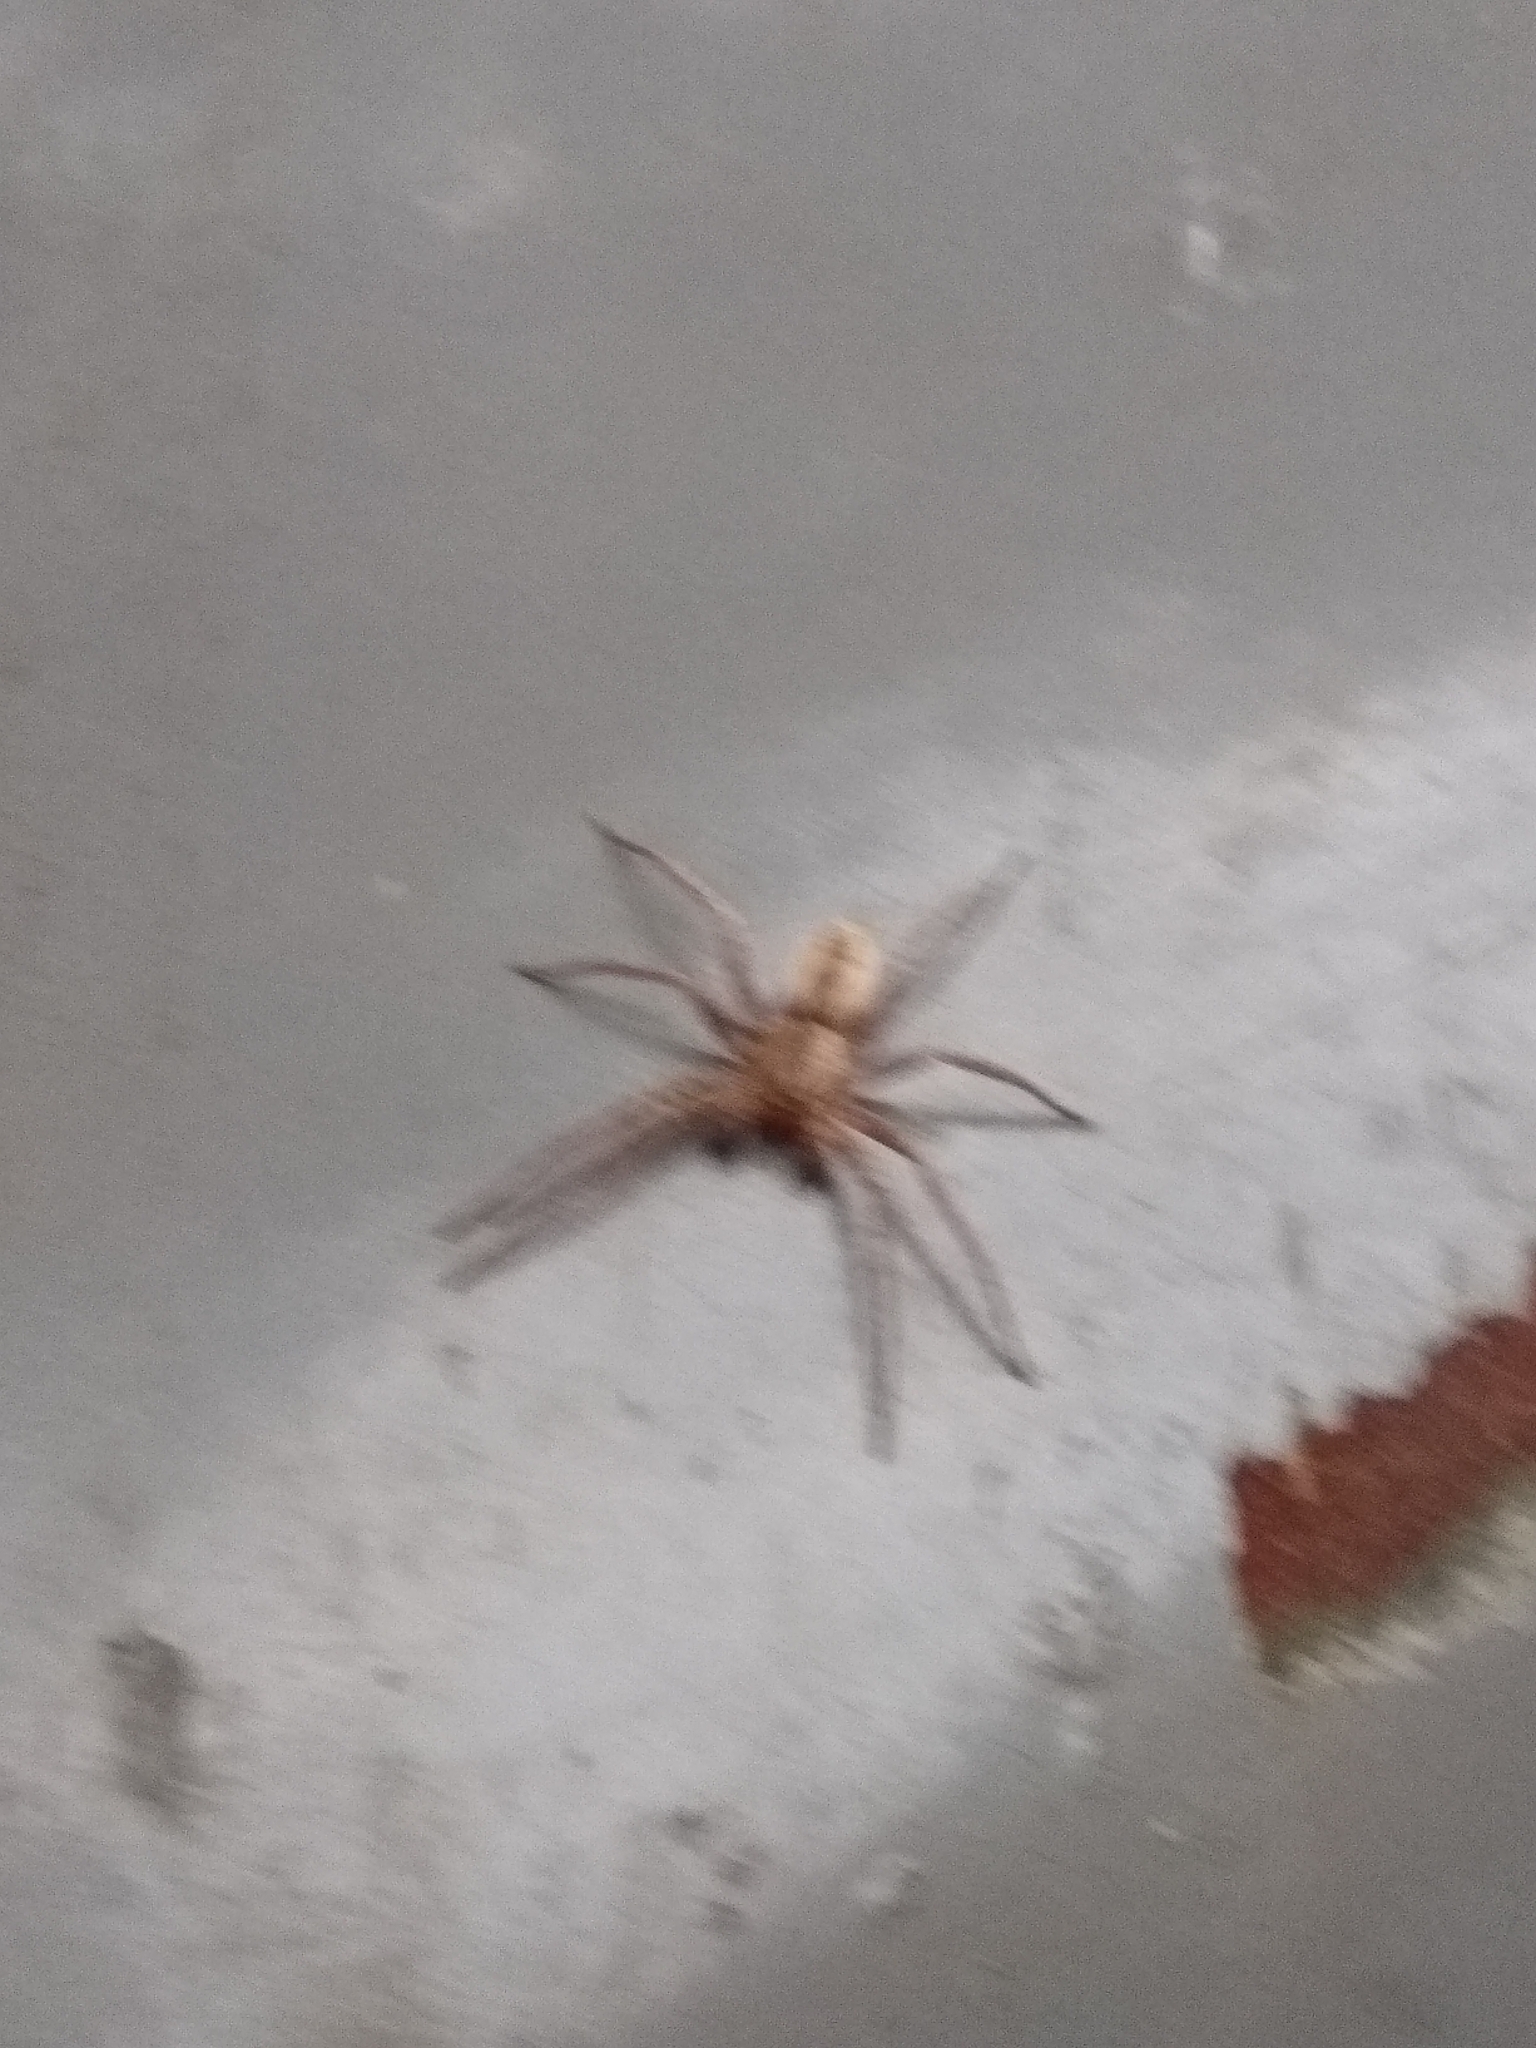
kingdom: Animalia
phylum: Arthropoda
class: Arachnida
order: Araneae
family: Anyphaenidae
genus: Arachosia
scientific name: Arachosia praesignis
